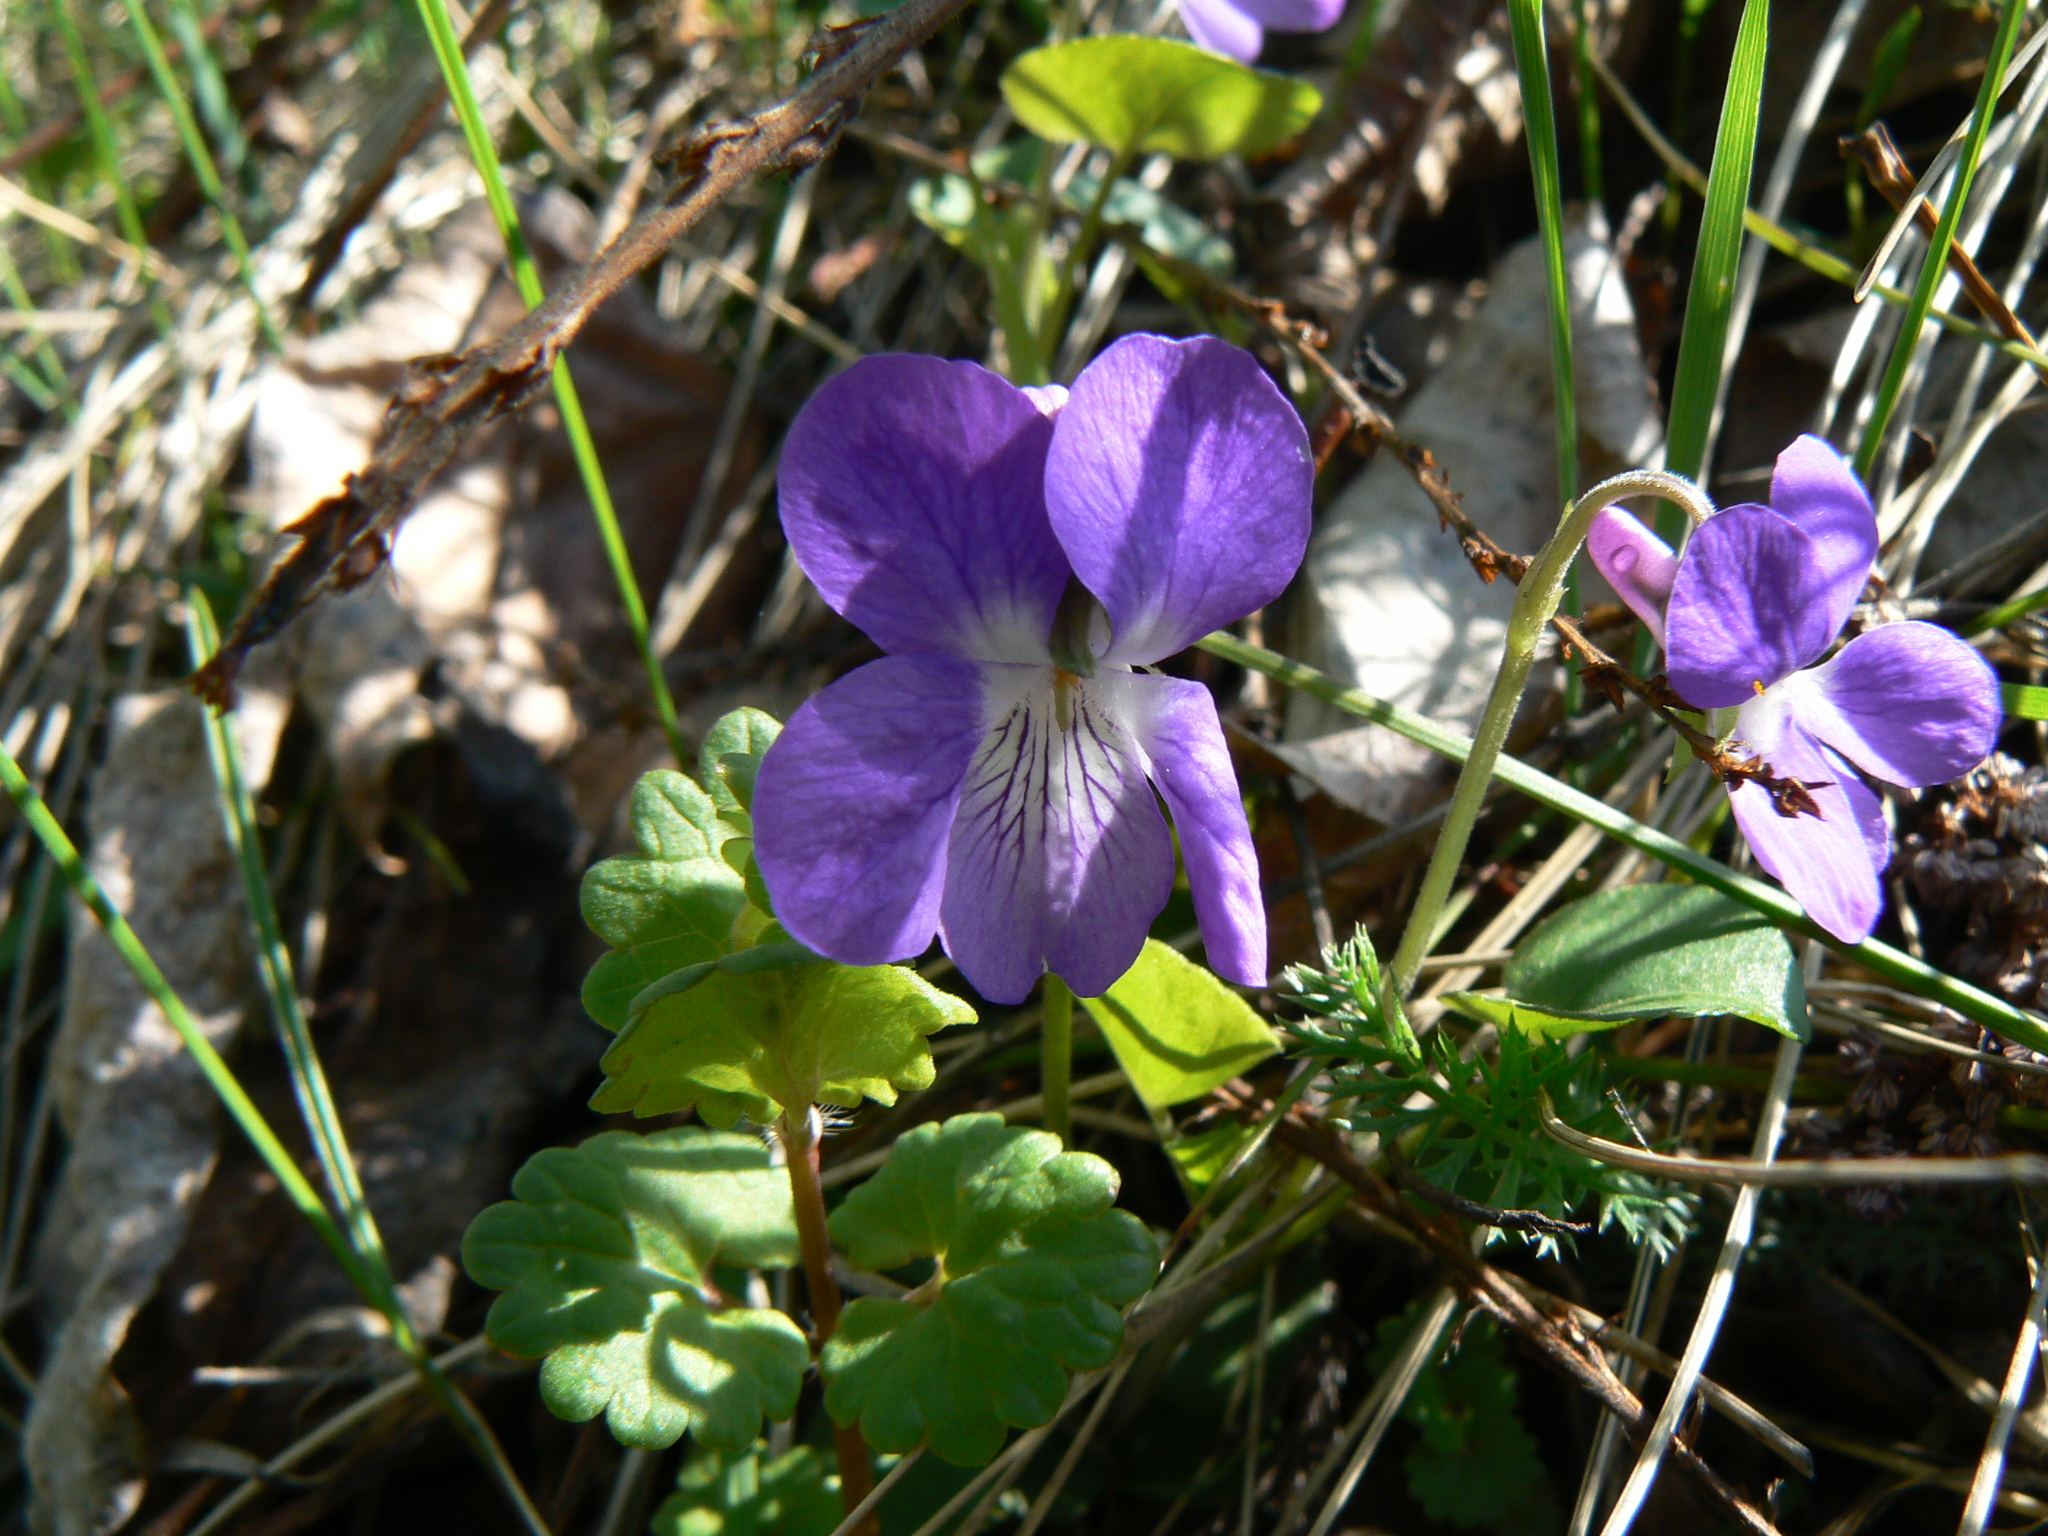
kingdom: Plantae
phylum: Tracheophyta
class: Magnoliopsida
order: Malpighiales
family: Violaceae
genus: Viola
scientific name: Viola rupestris
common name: Teesdale violet
